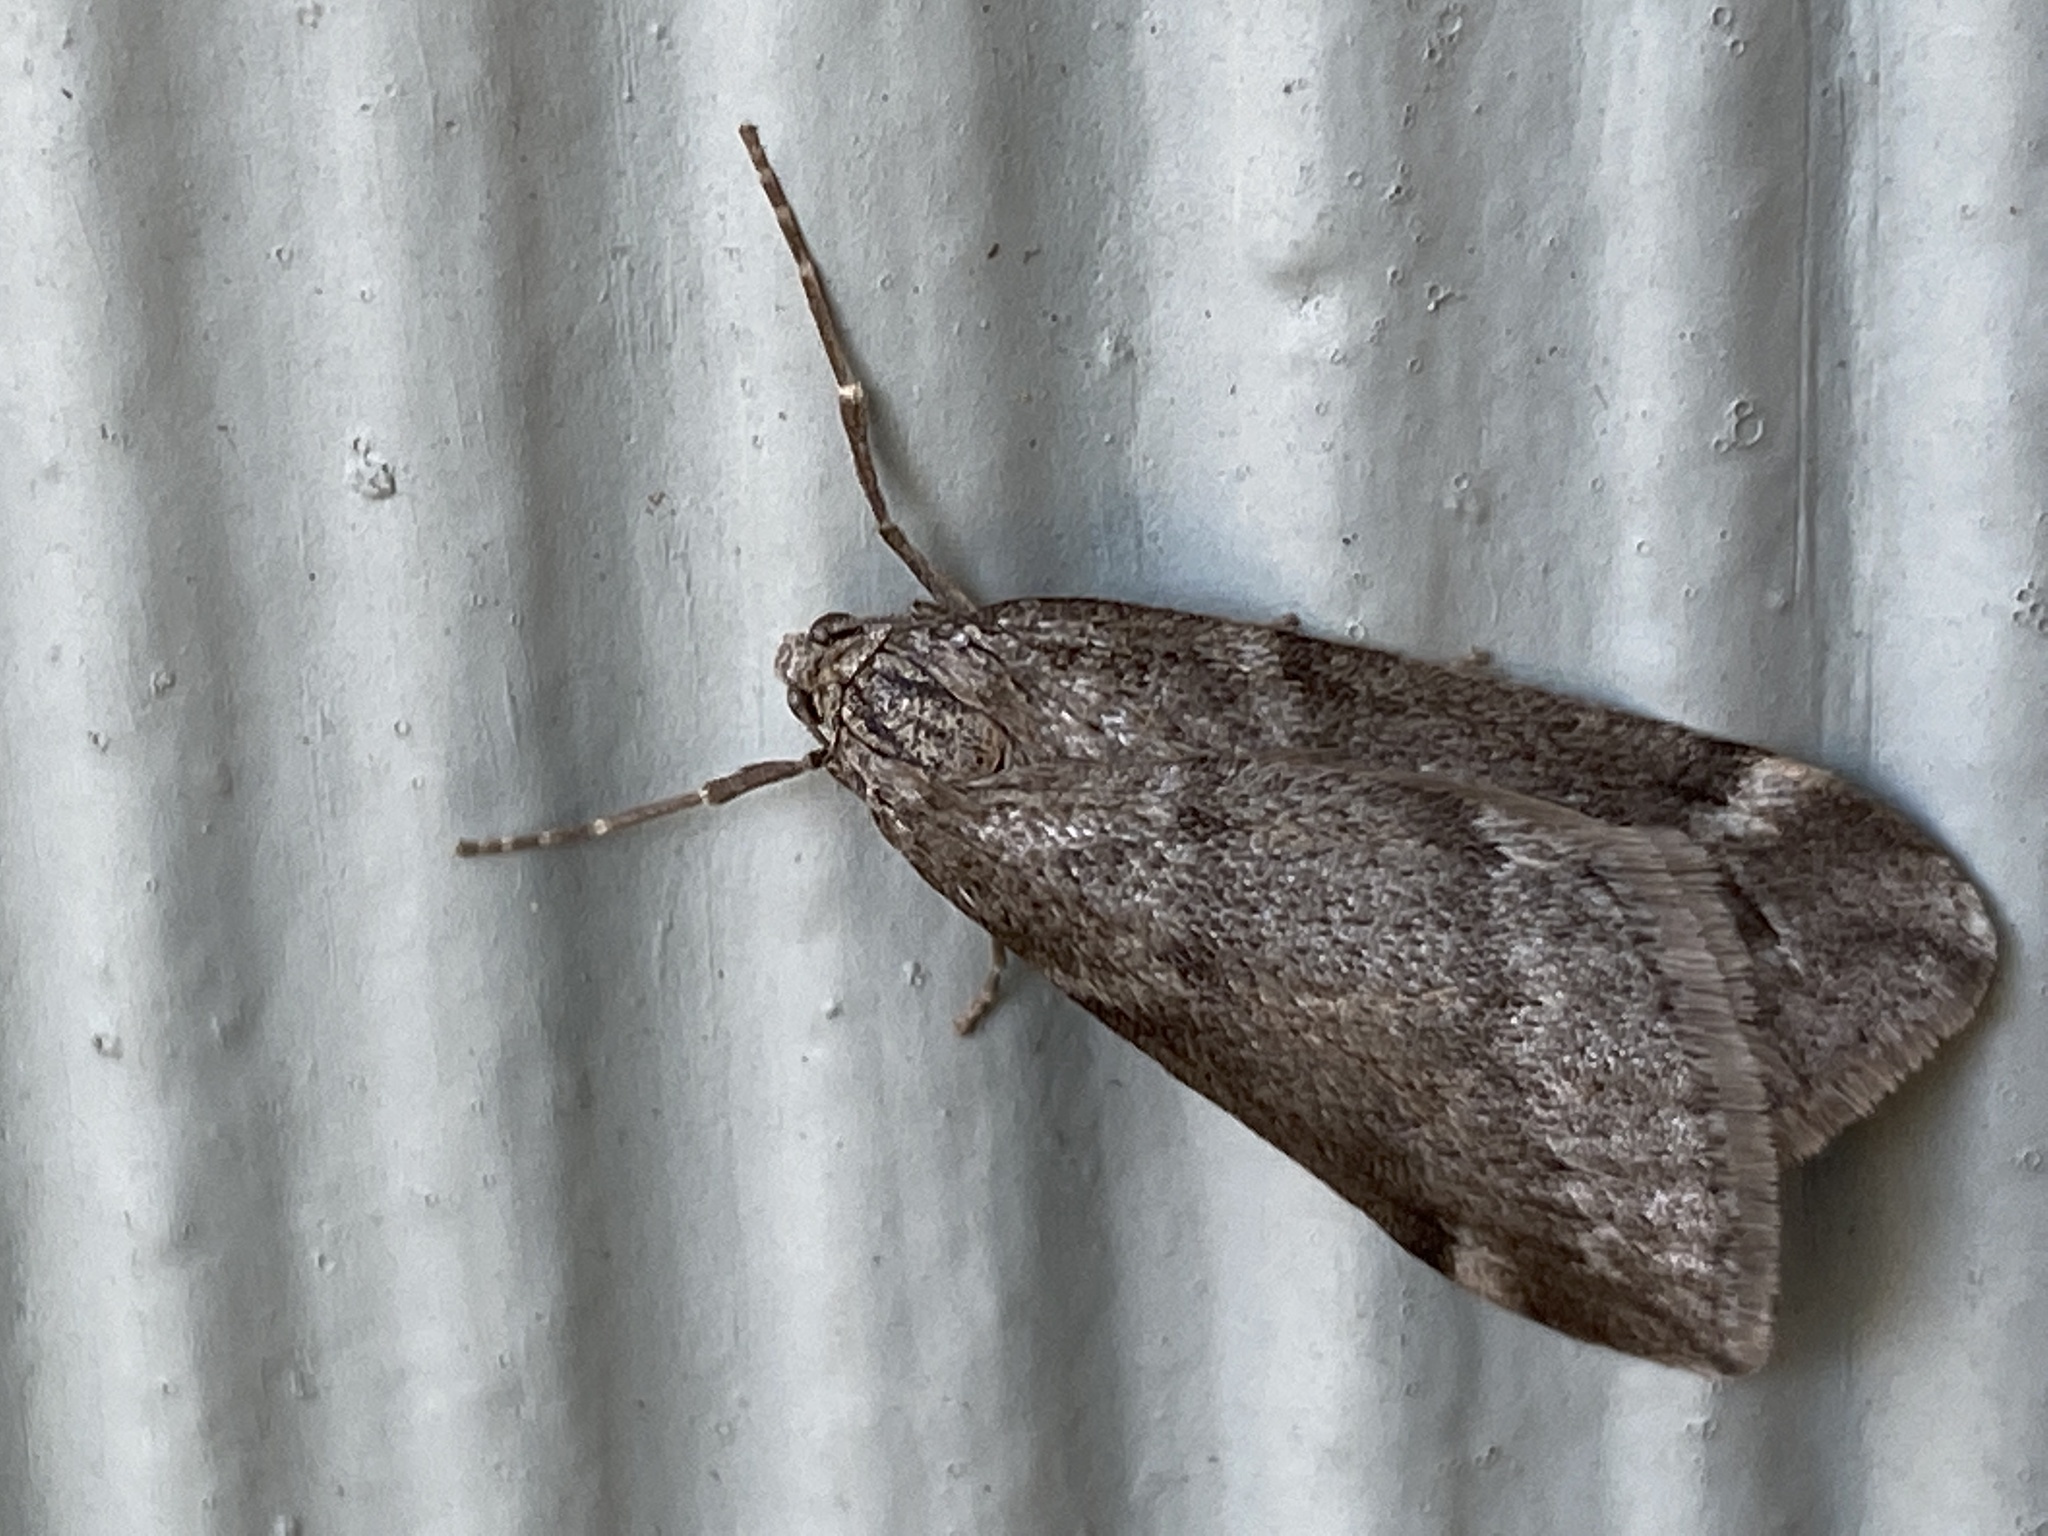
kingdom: Animalia
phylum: Arthropoda
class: Insecta
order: Lepidoptera
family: Geometridae
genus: Alsophila
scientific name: Alsophila pometaria
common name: Fall cankerworm
